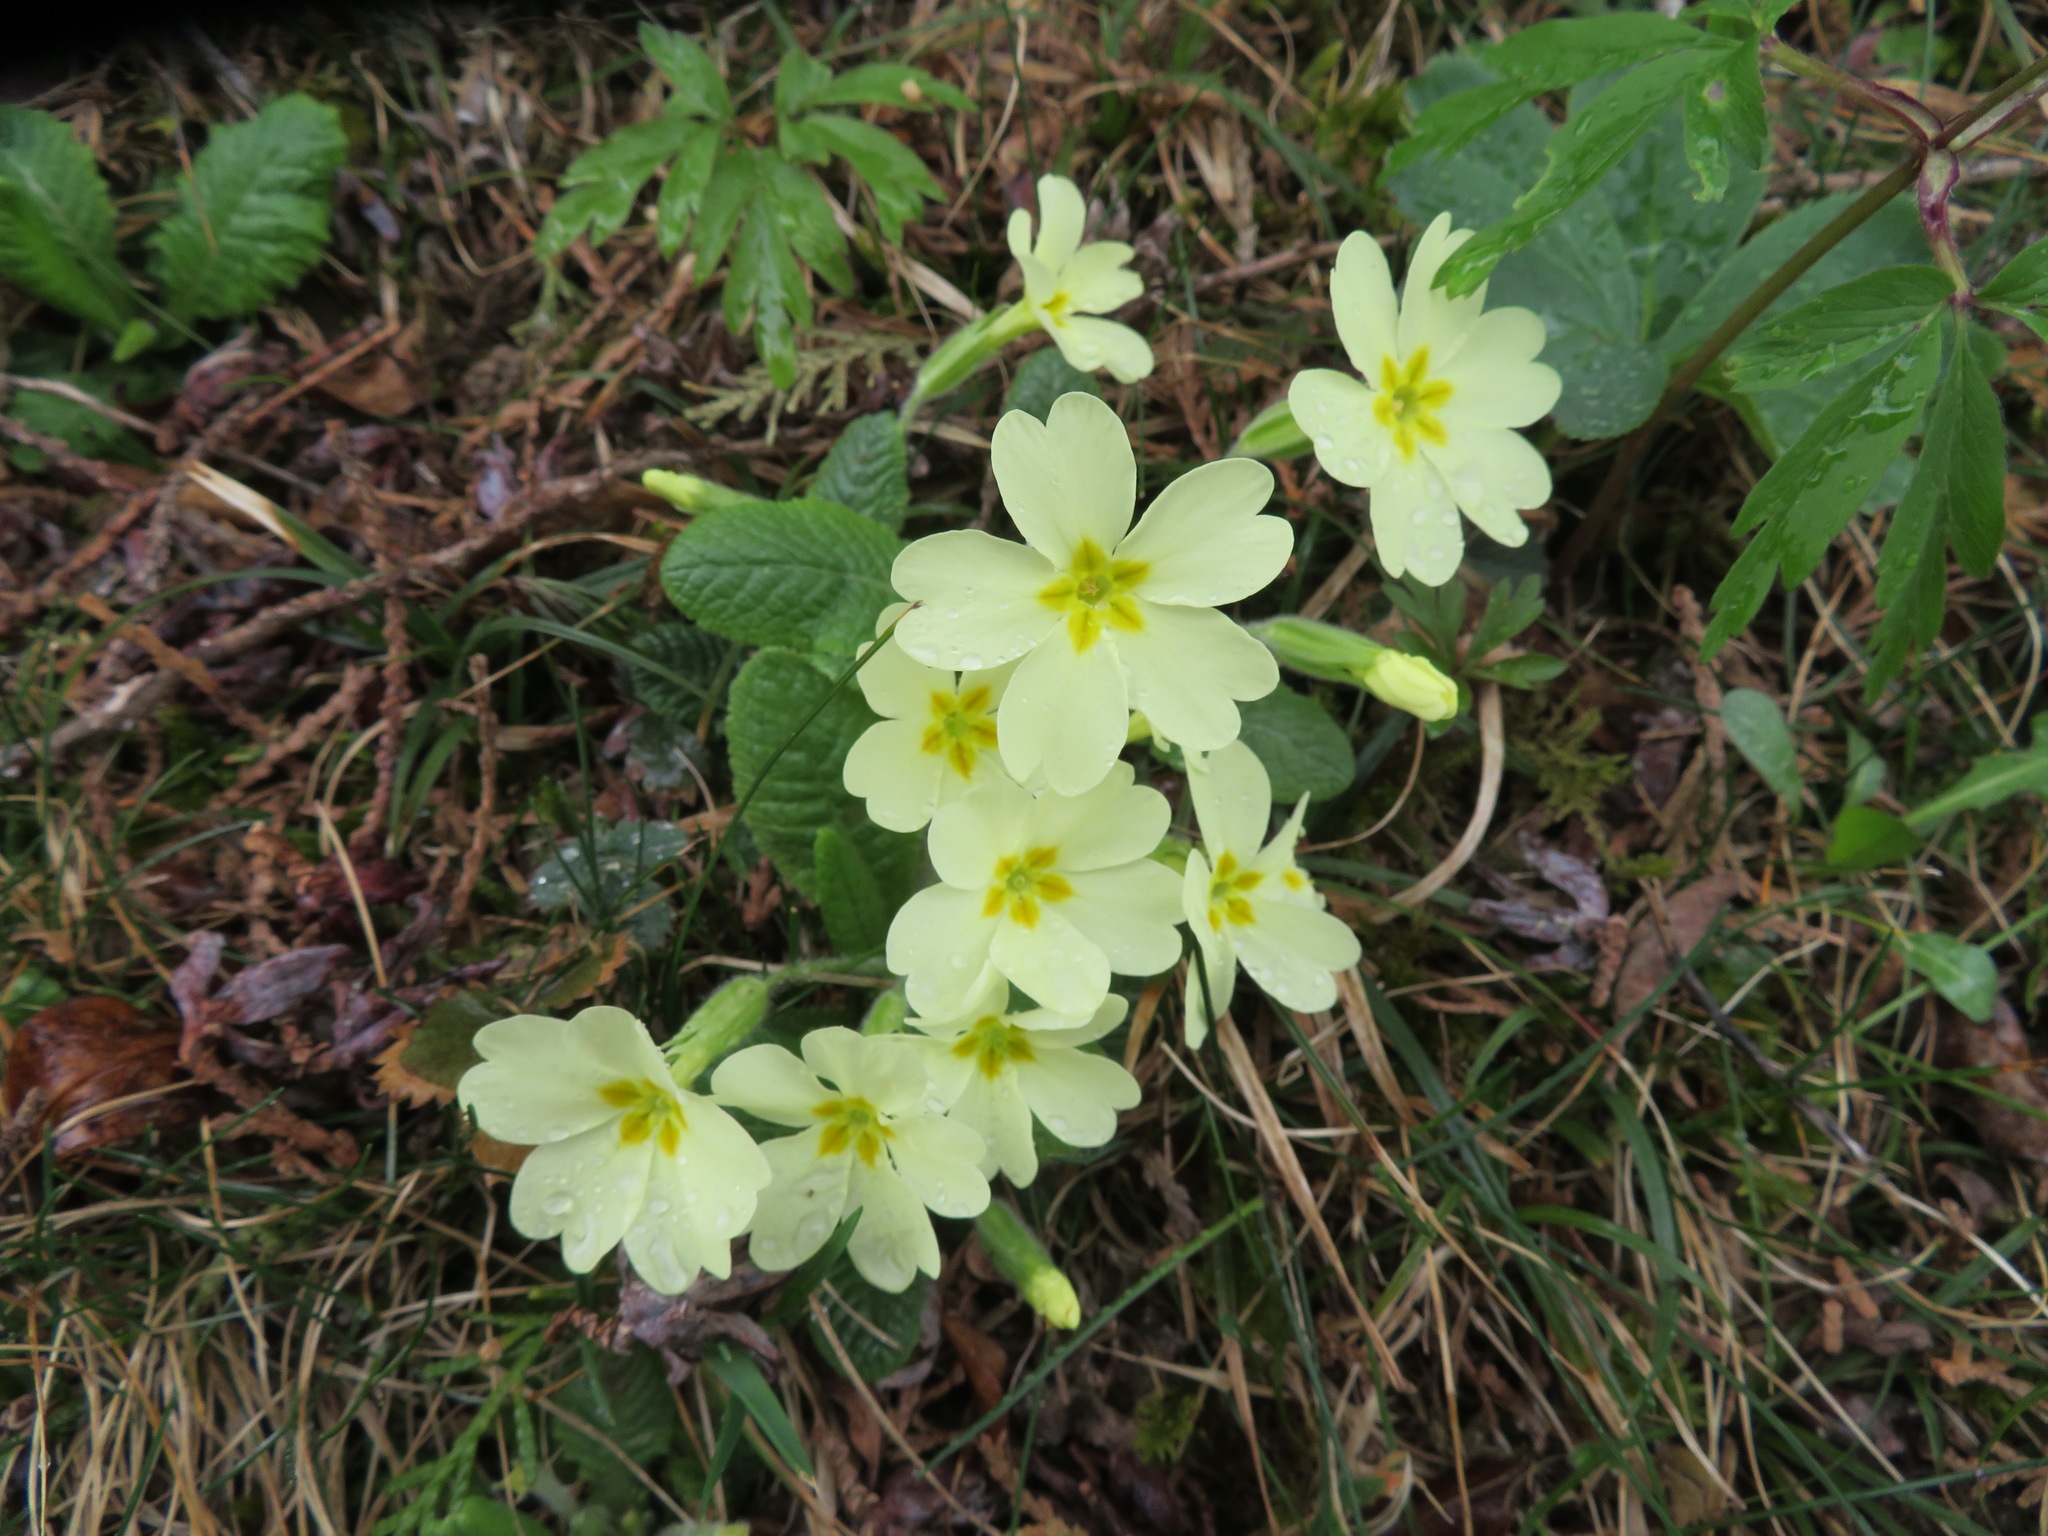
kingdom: Plantae
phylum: Tracheophyta
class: Magnoliopsida
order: Ericales
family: Primulaceae
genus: Primula
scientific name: Primula vulgaris
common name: Primrose
